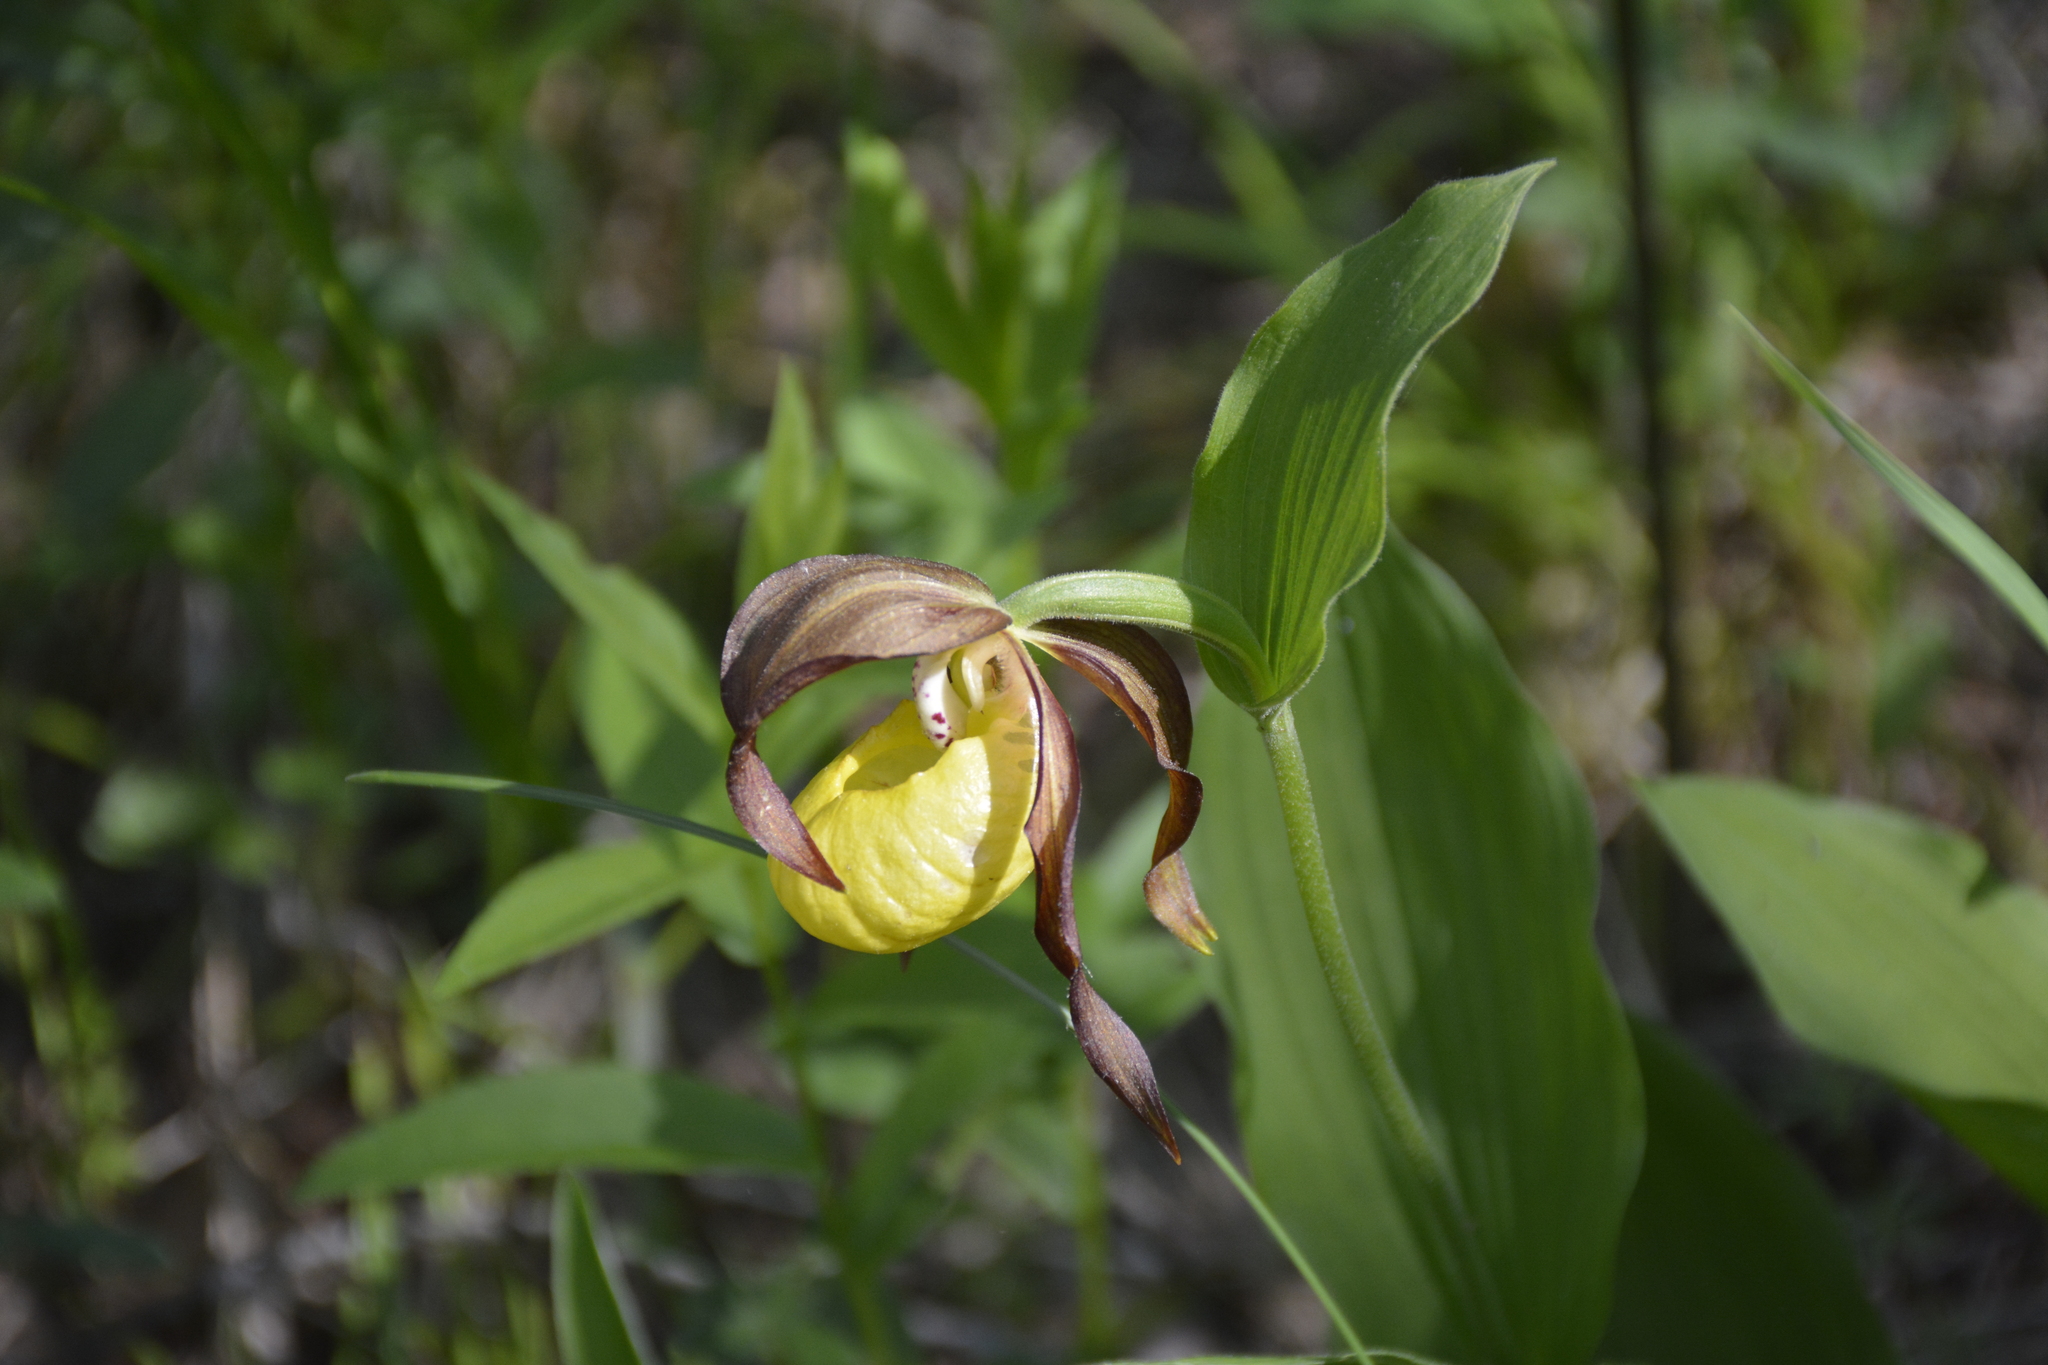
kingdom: Plantae
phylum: Tracheophyta
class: Liliopsida
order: Asparagales
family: Orchidaceae
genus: Cypripedium
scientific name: Cypripedium calceolus
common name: Lady's-slipper
